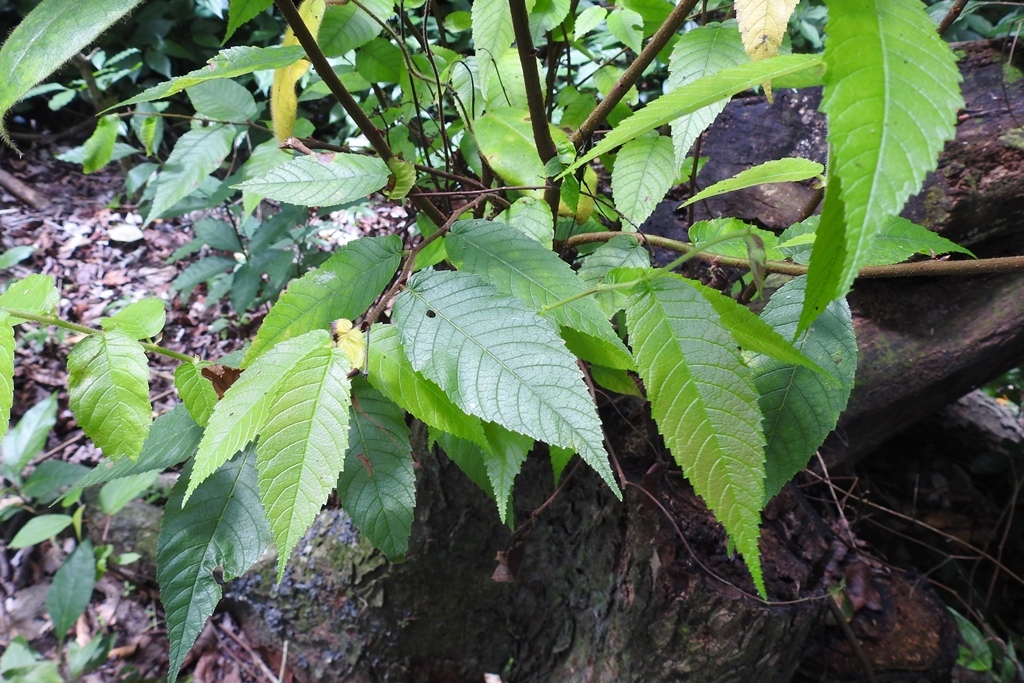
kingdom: Plantae
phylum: Tracheophyta
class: Magnoliopsida
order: Rosales
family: Cannabaceae
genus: Aphananthe
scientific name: Aphananthe monoica
